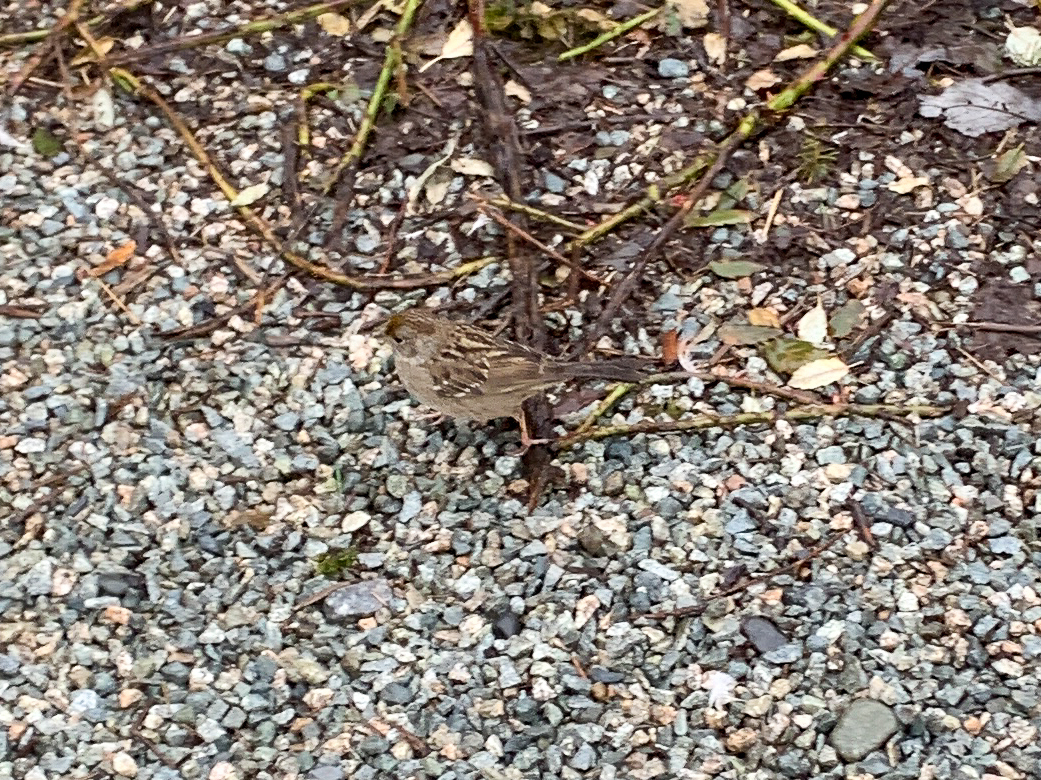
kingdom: Animalia
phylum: Chordata
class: Aves
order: Passeriformes
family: Passerellidae
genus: Zonotrichia
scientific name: Zonotrichia atricapilla
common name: Golden-crowned sparrow
